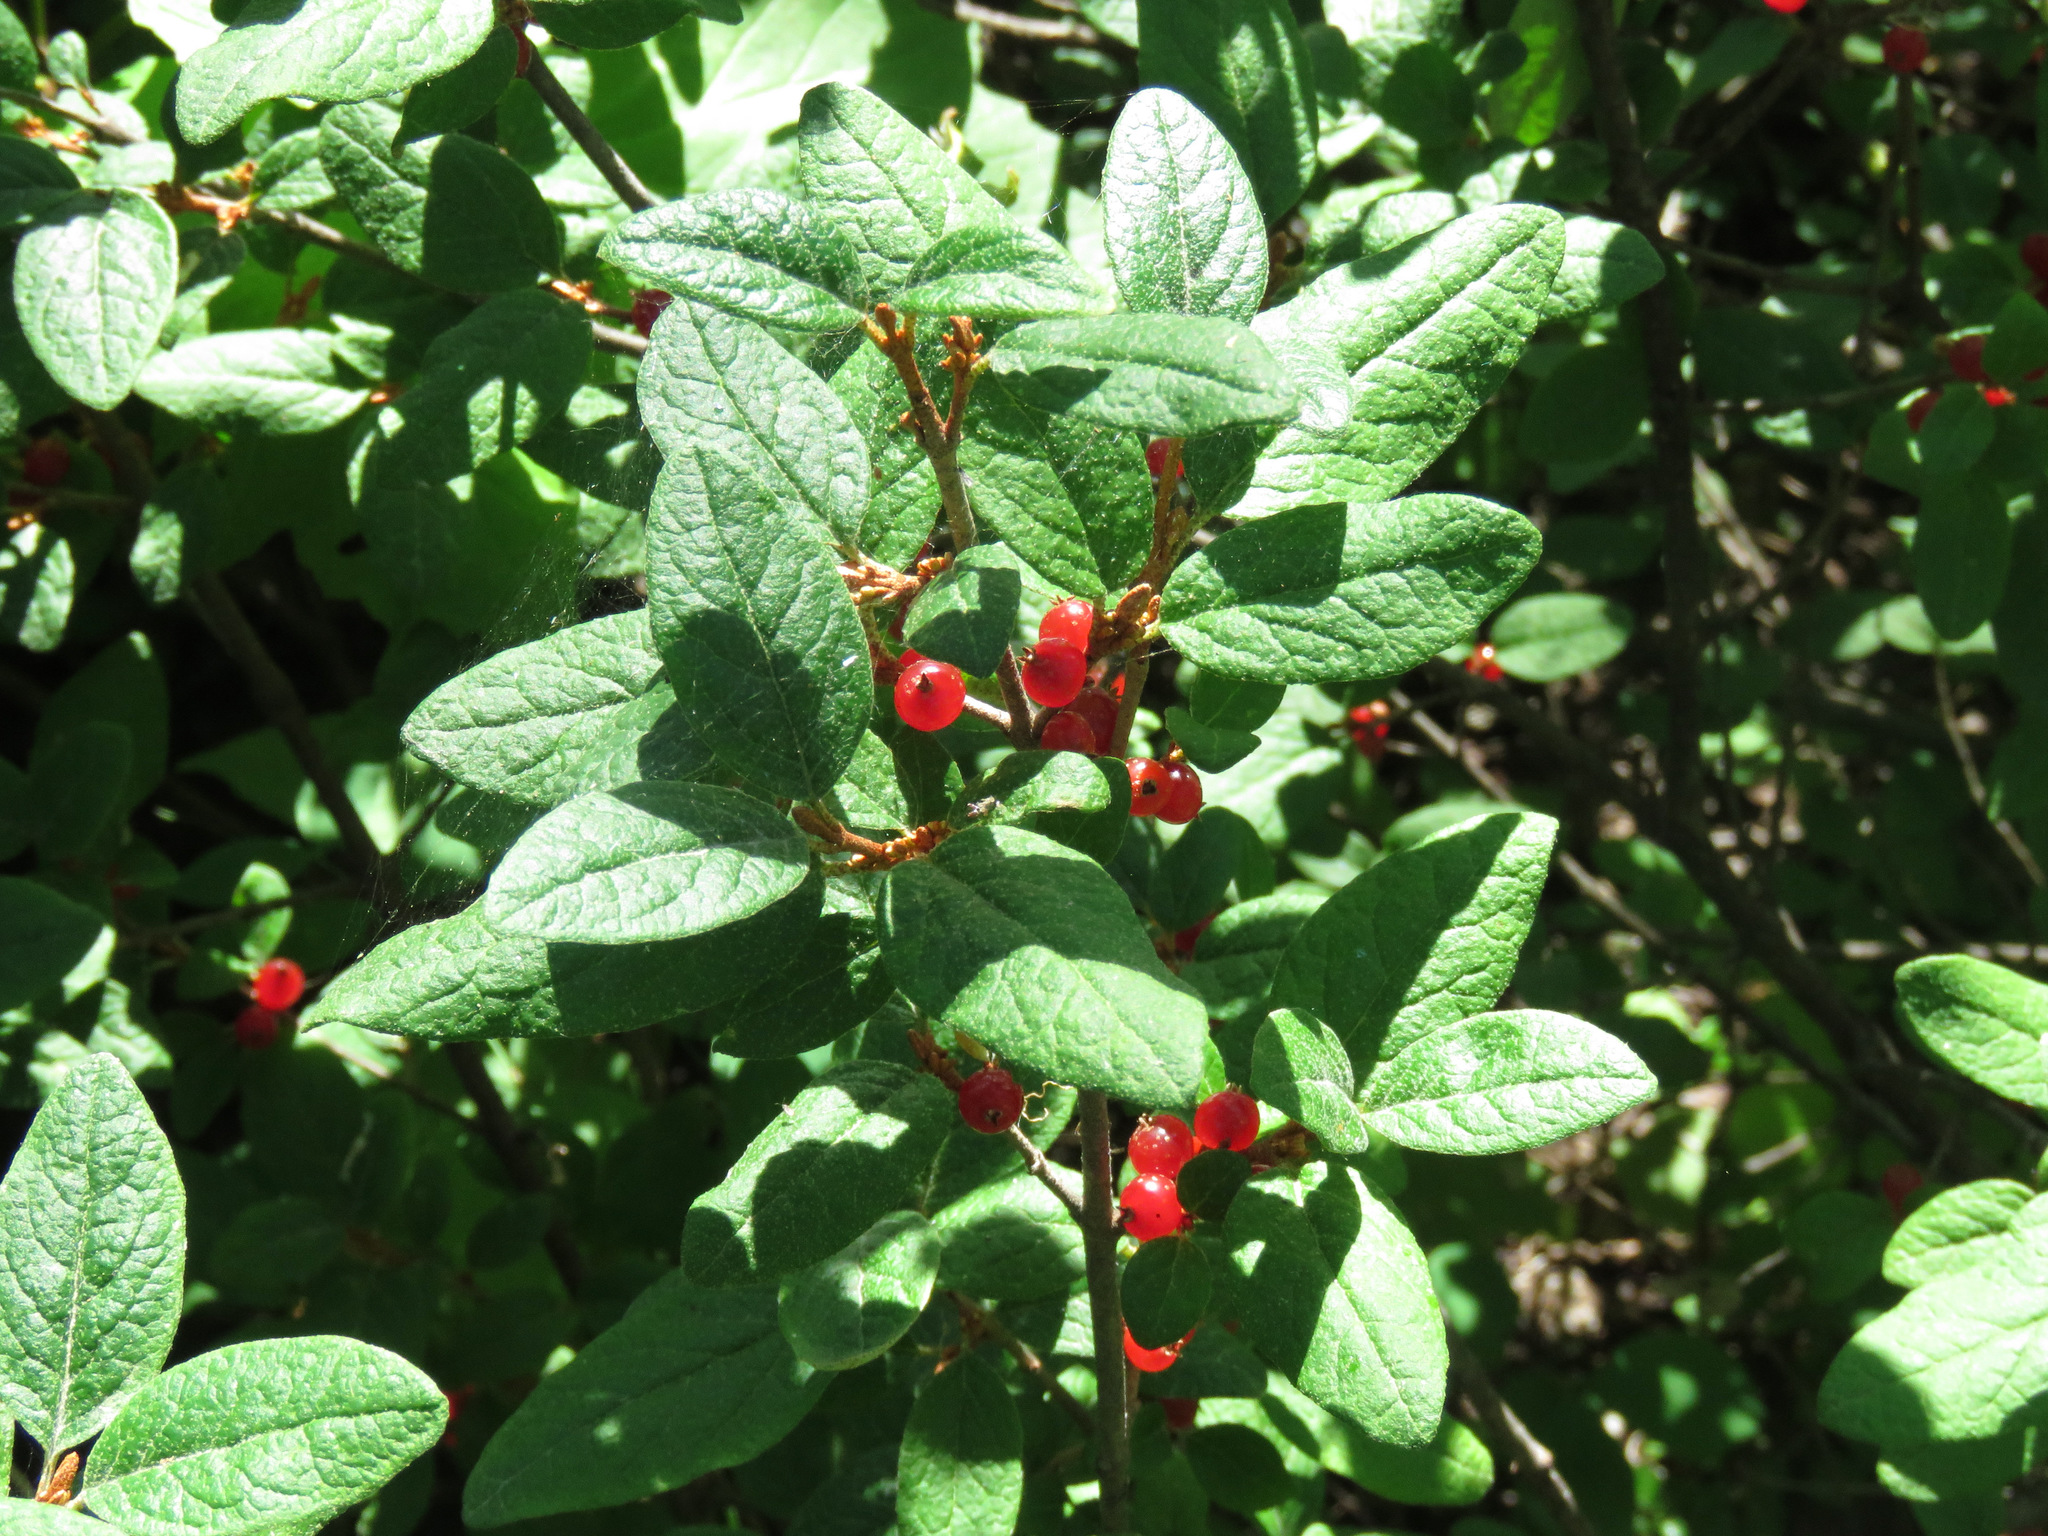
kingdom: Plantae
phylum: Tracheophyta
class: Magnoliopsida
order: Rosales
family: Elaeagnaceae
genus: Shepherdia
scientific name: Shepherdia canadensis
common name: Soapberry
